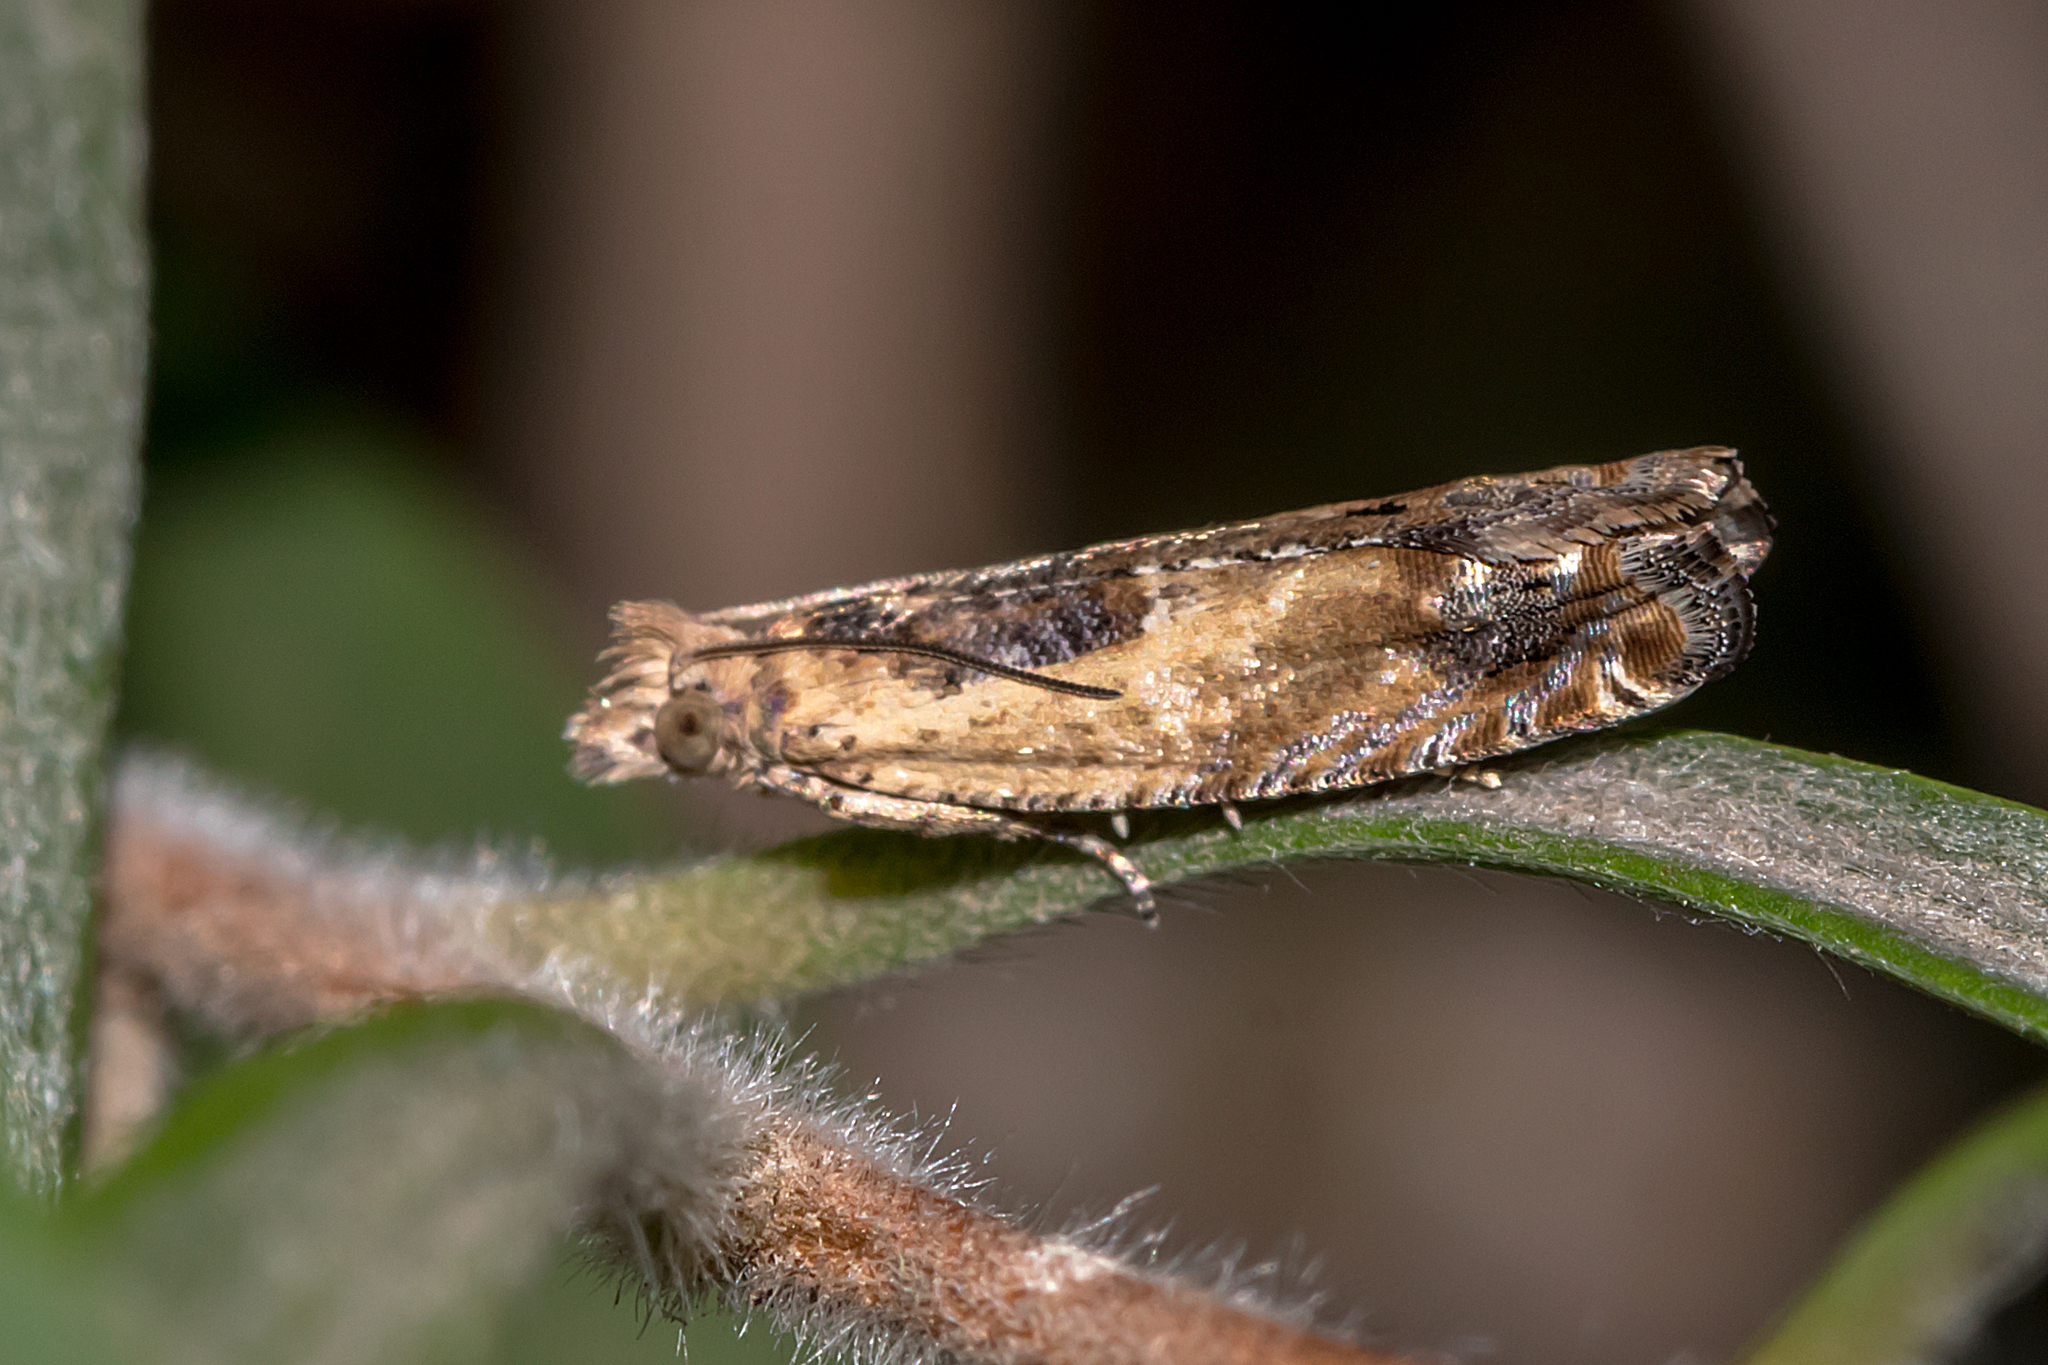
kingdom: Animalia
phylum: Arthropoda
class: Insecta
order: Lepidoptera
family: Tortricidae
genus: Crocidosema
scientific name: Crocidosema plebejana
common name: Southern bell
